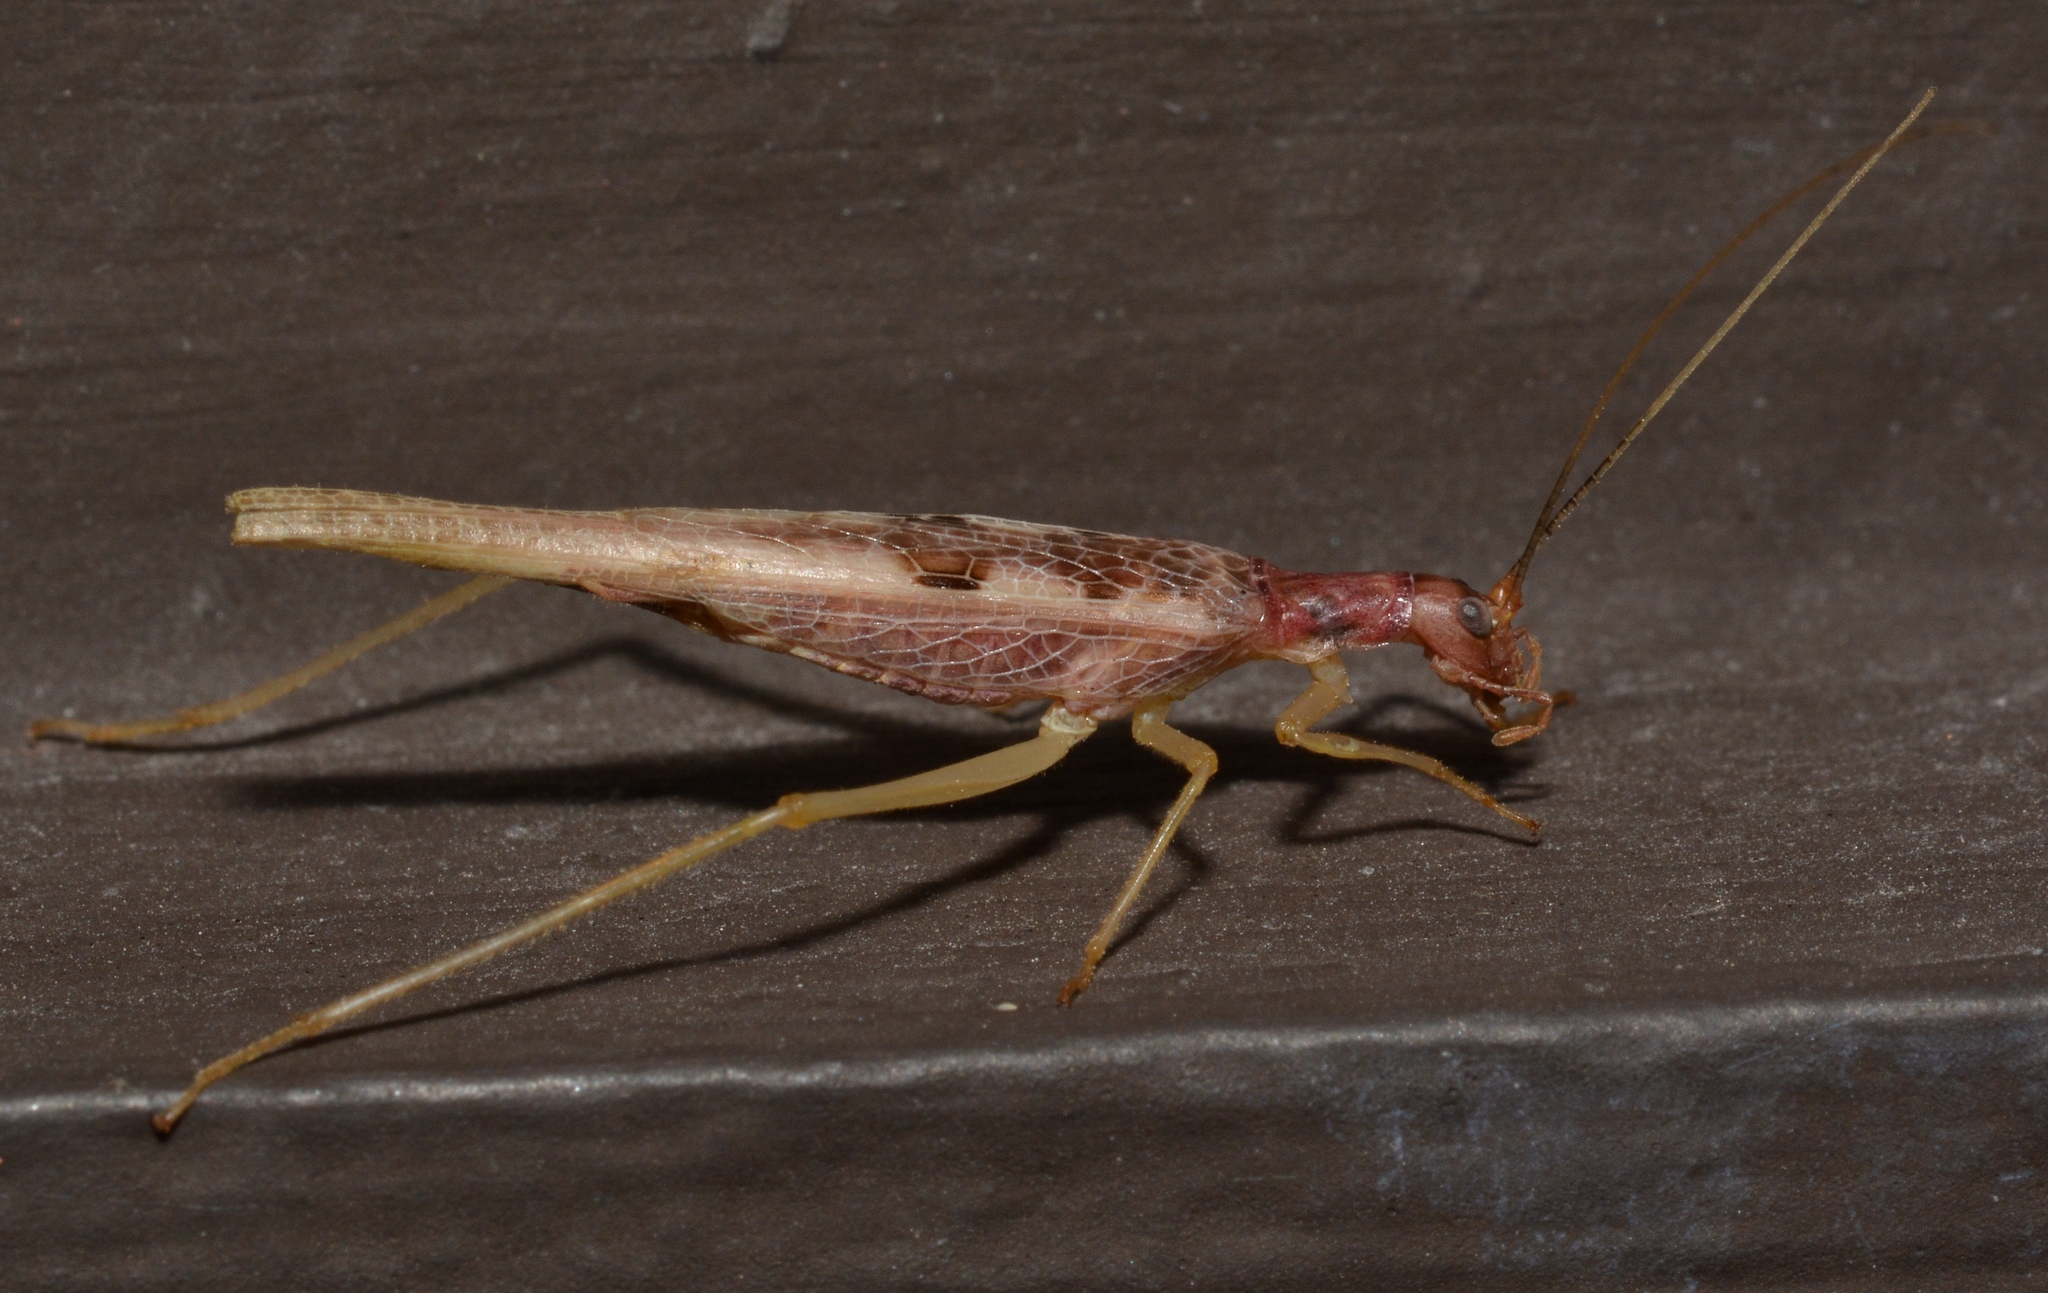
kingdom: Animalia
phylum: Arthropoda
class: Insecta
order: Orthoptera
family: Gryllidae
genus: Neoxabea
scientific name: Neoxabea bipunctata
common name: Two-spotted tree cricket
